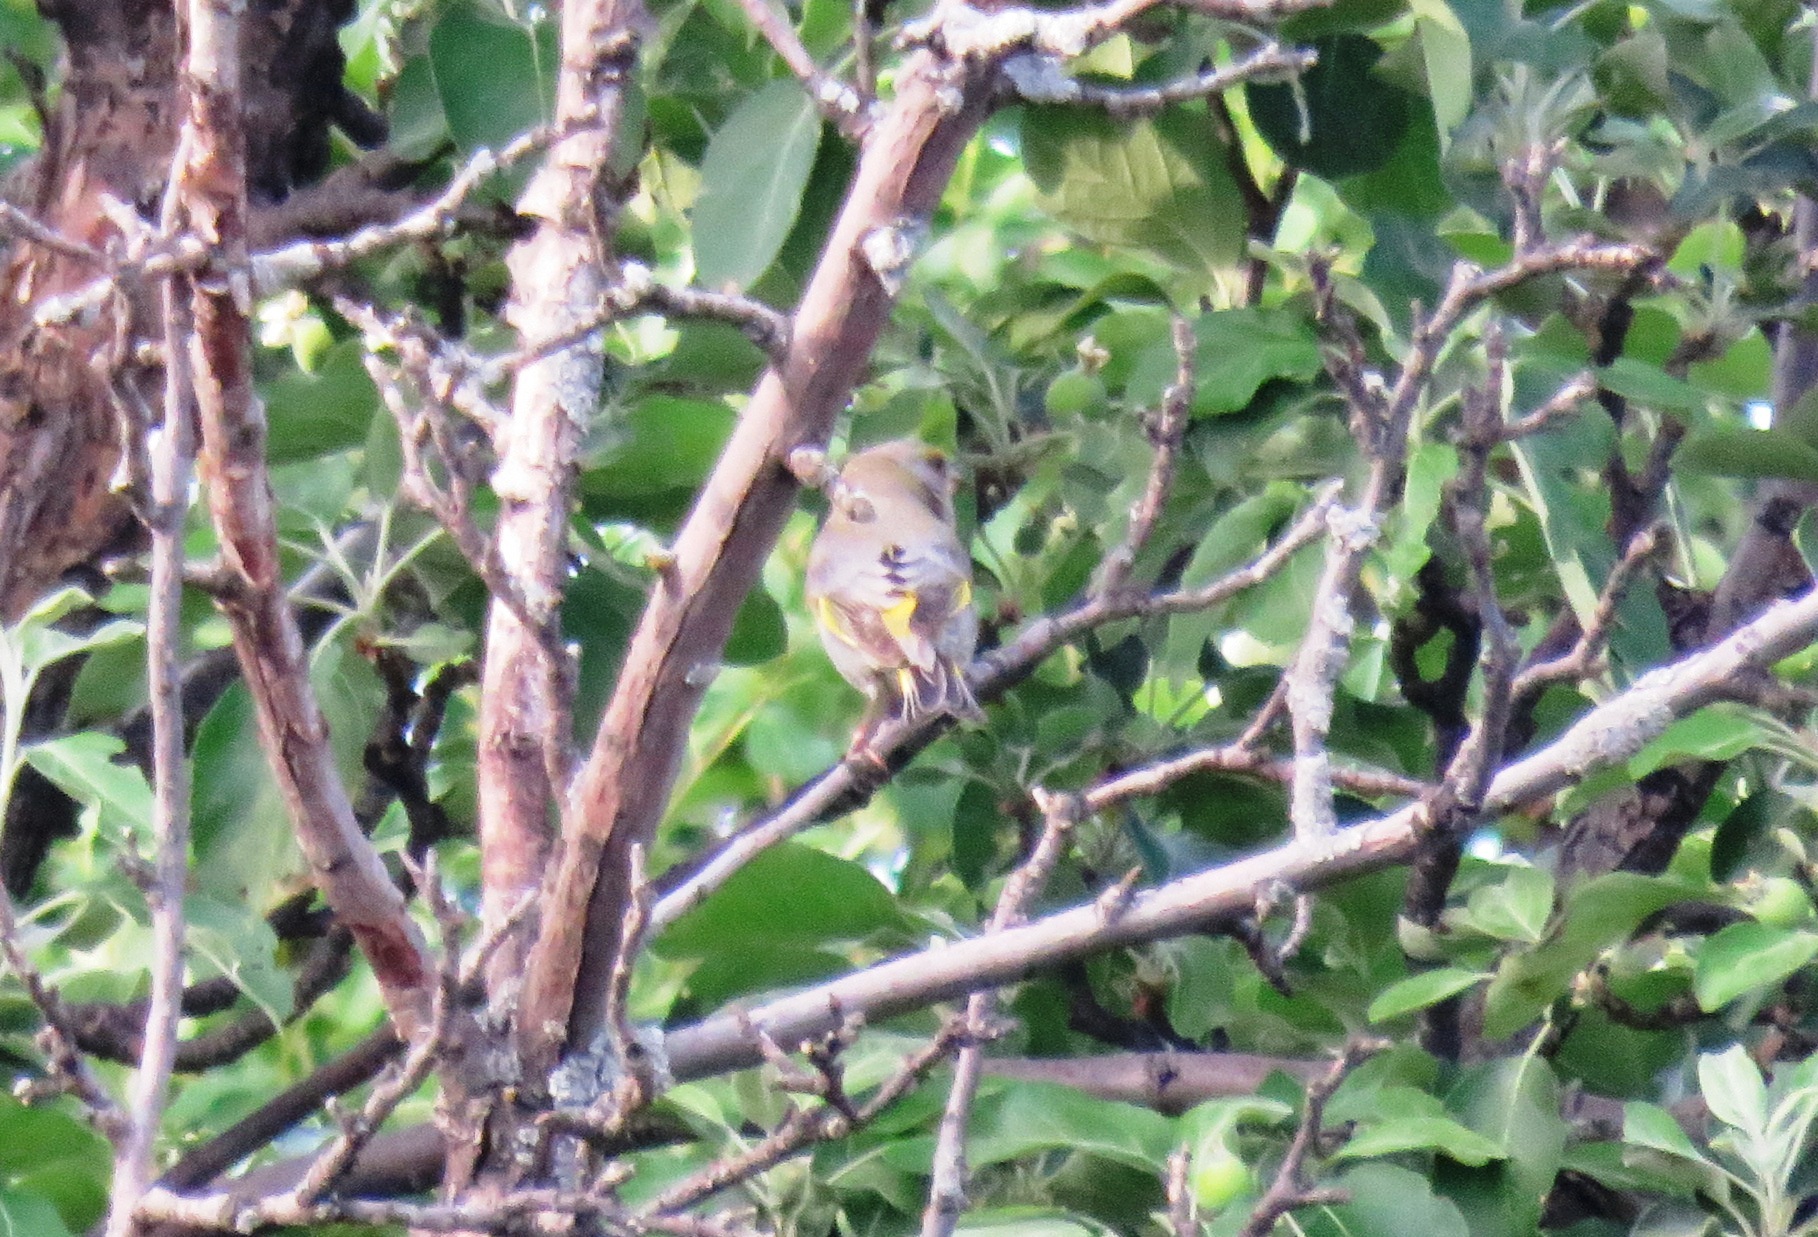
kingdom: Plantae
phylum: Tracheophyta
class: Liliopsida
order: Poales
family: Poaceae
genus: Chloris
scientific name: Chloris chloris
